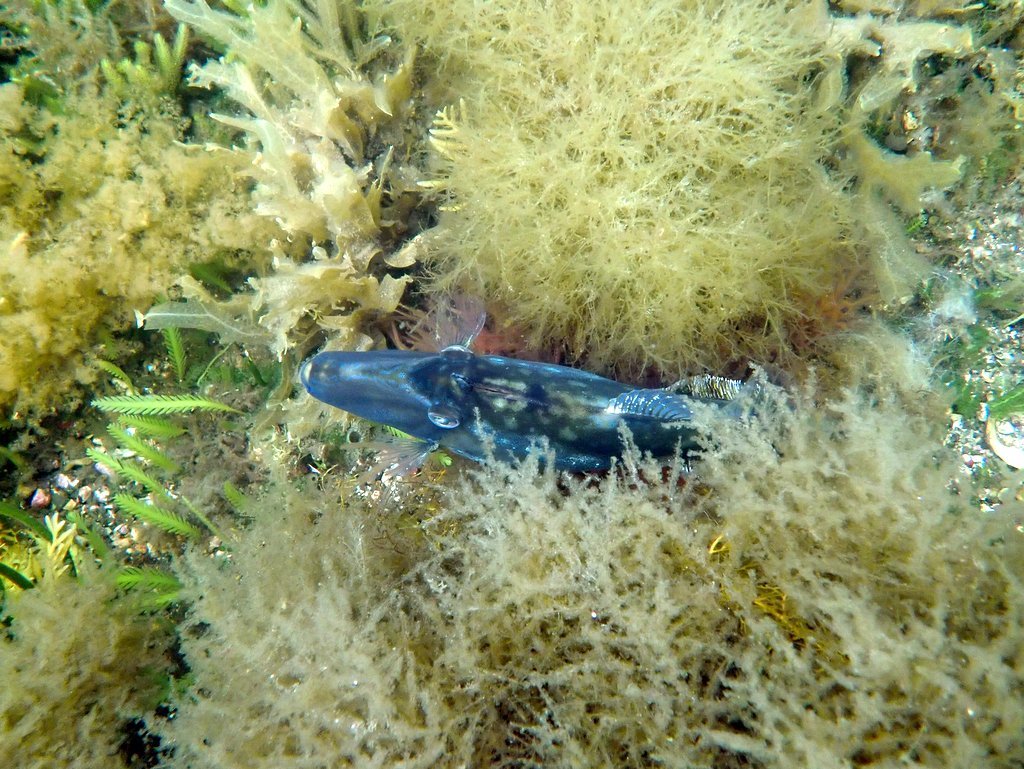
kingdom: Animalia
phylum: Chordata
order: Tetraodontiformes
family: Monacanthidae
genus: Acanthaluteres
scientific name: Acanthaluteres vittiger
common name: Brown leatherjacket
